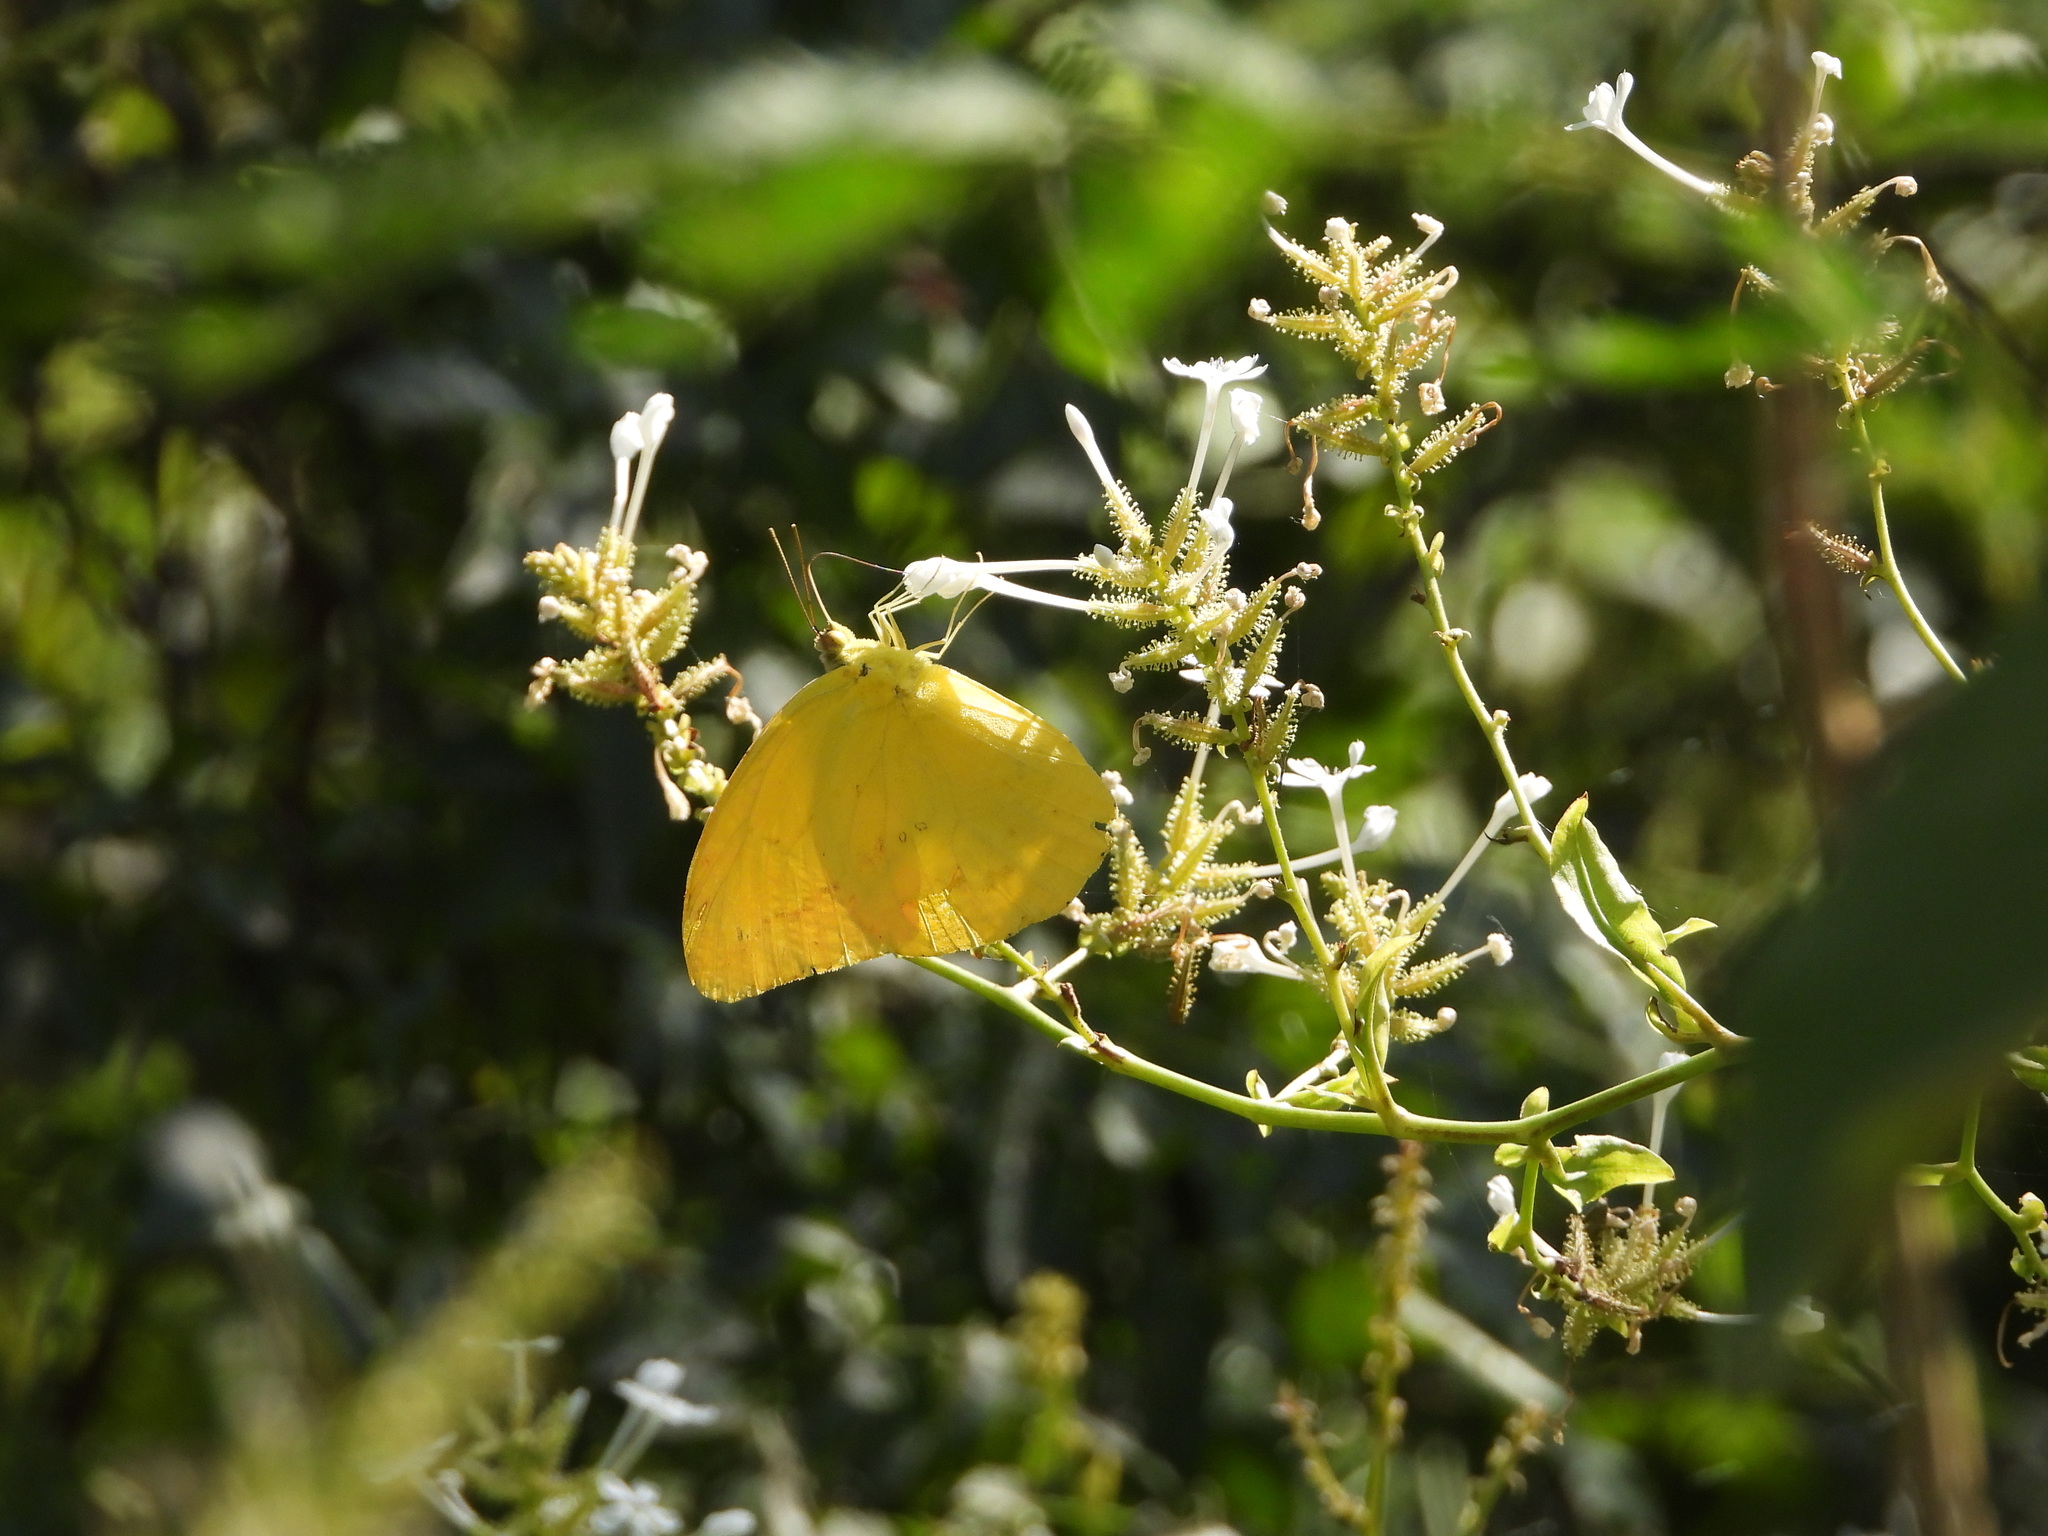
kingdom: Animalia
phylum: Arthropoda
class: Insecta
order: Lepidoptera
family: Pieridae
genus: Phoebis
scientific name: Phoebis agarithe
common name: Large orange sulphur
